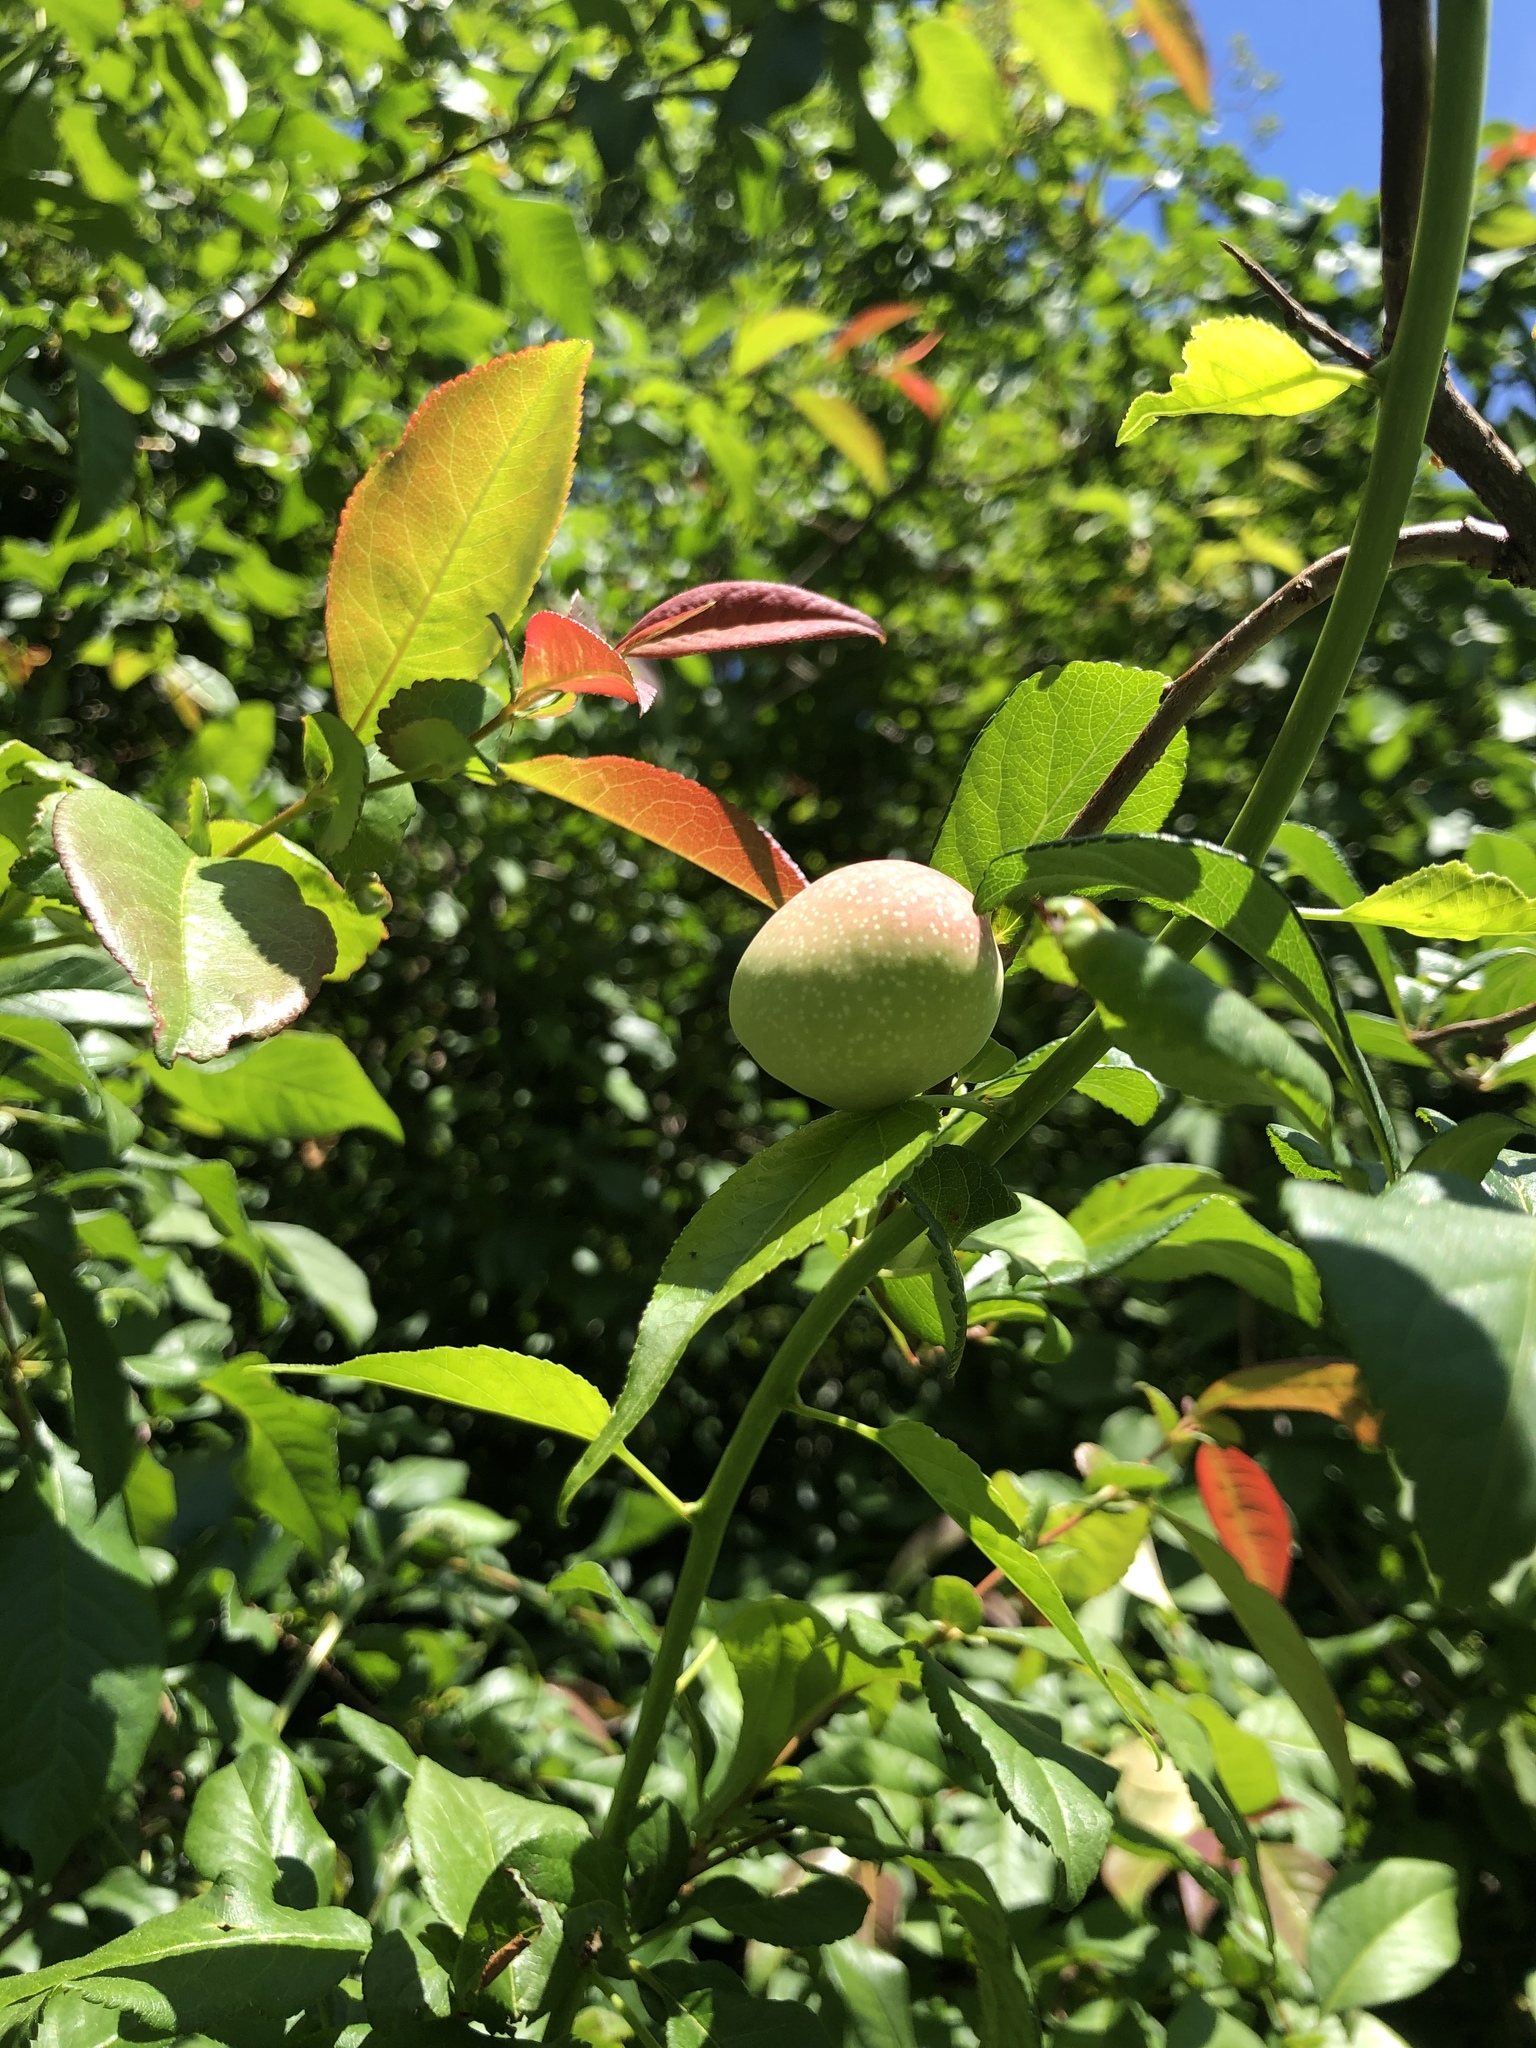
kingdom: Plantae
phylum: Tracheophyta
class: Magnoliopsida
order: Rosales
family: Rosaceae
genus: Prunus
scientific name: Prunus persica
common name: Peach
